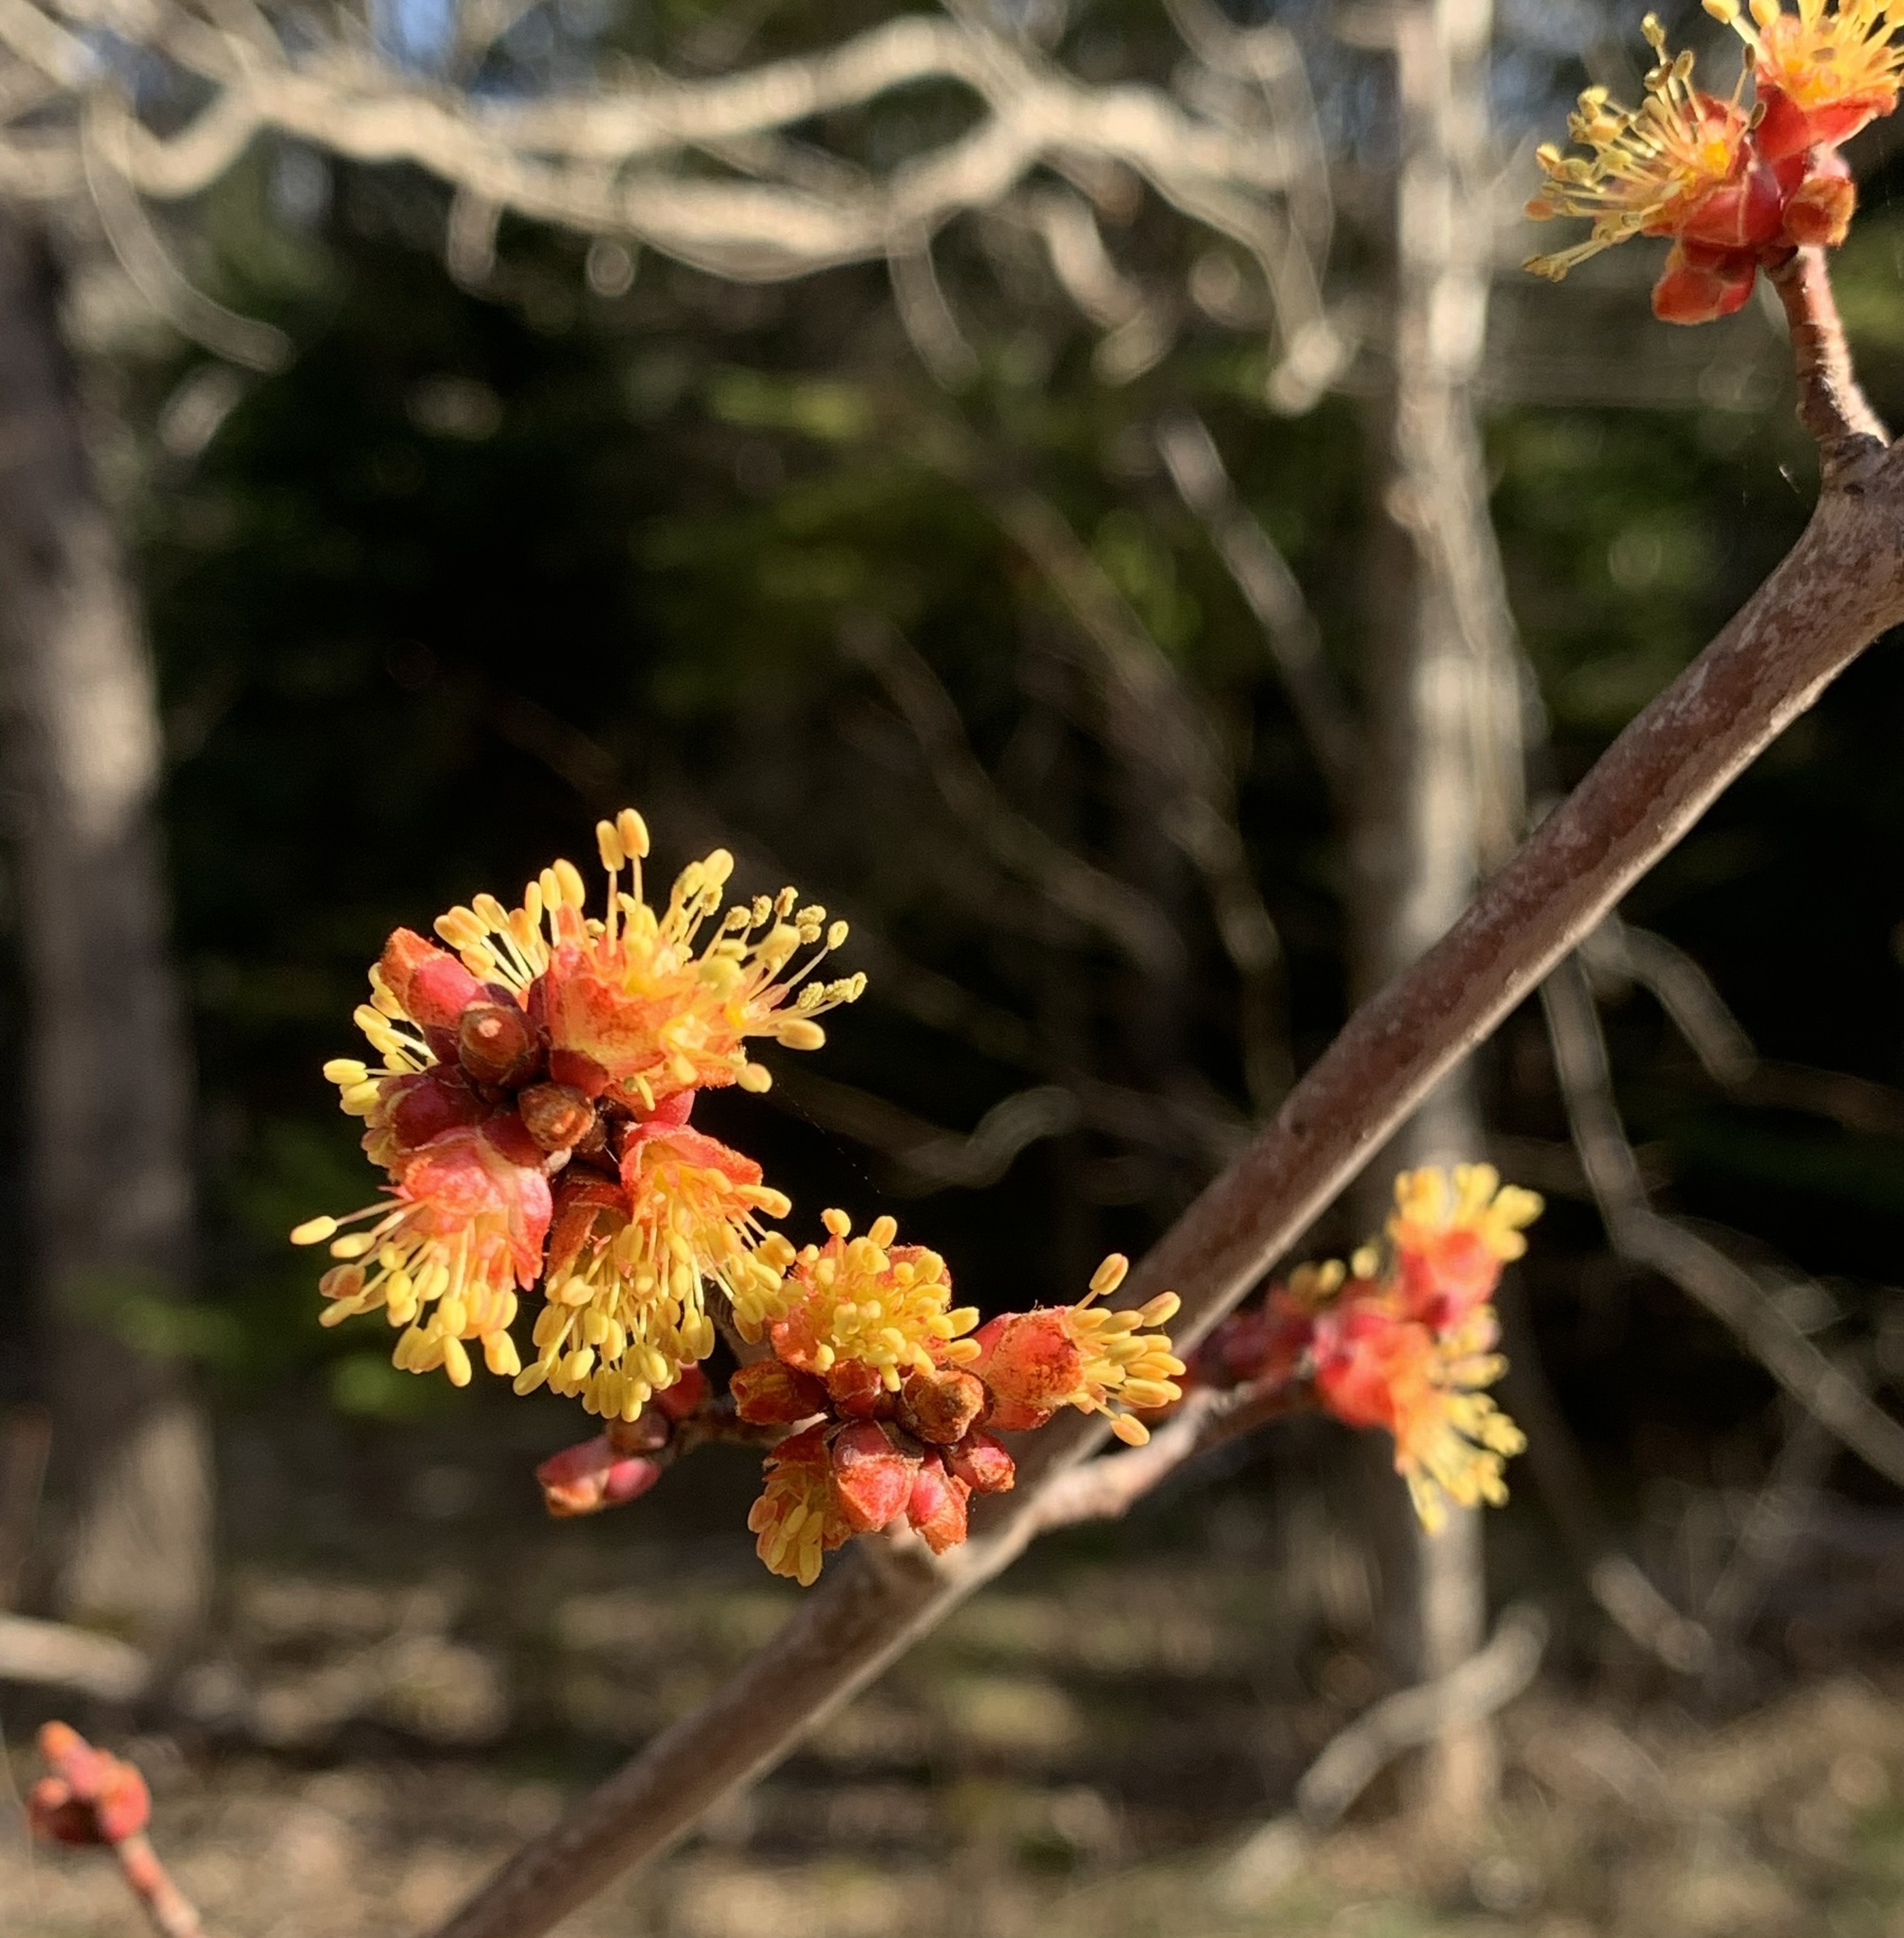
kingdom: Plantae
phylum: Tracheophyta
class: Magnoliopsida
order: Sapindales
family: Sapindaceae
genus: Acer
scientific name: Acer rubrum
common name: Red maple
